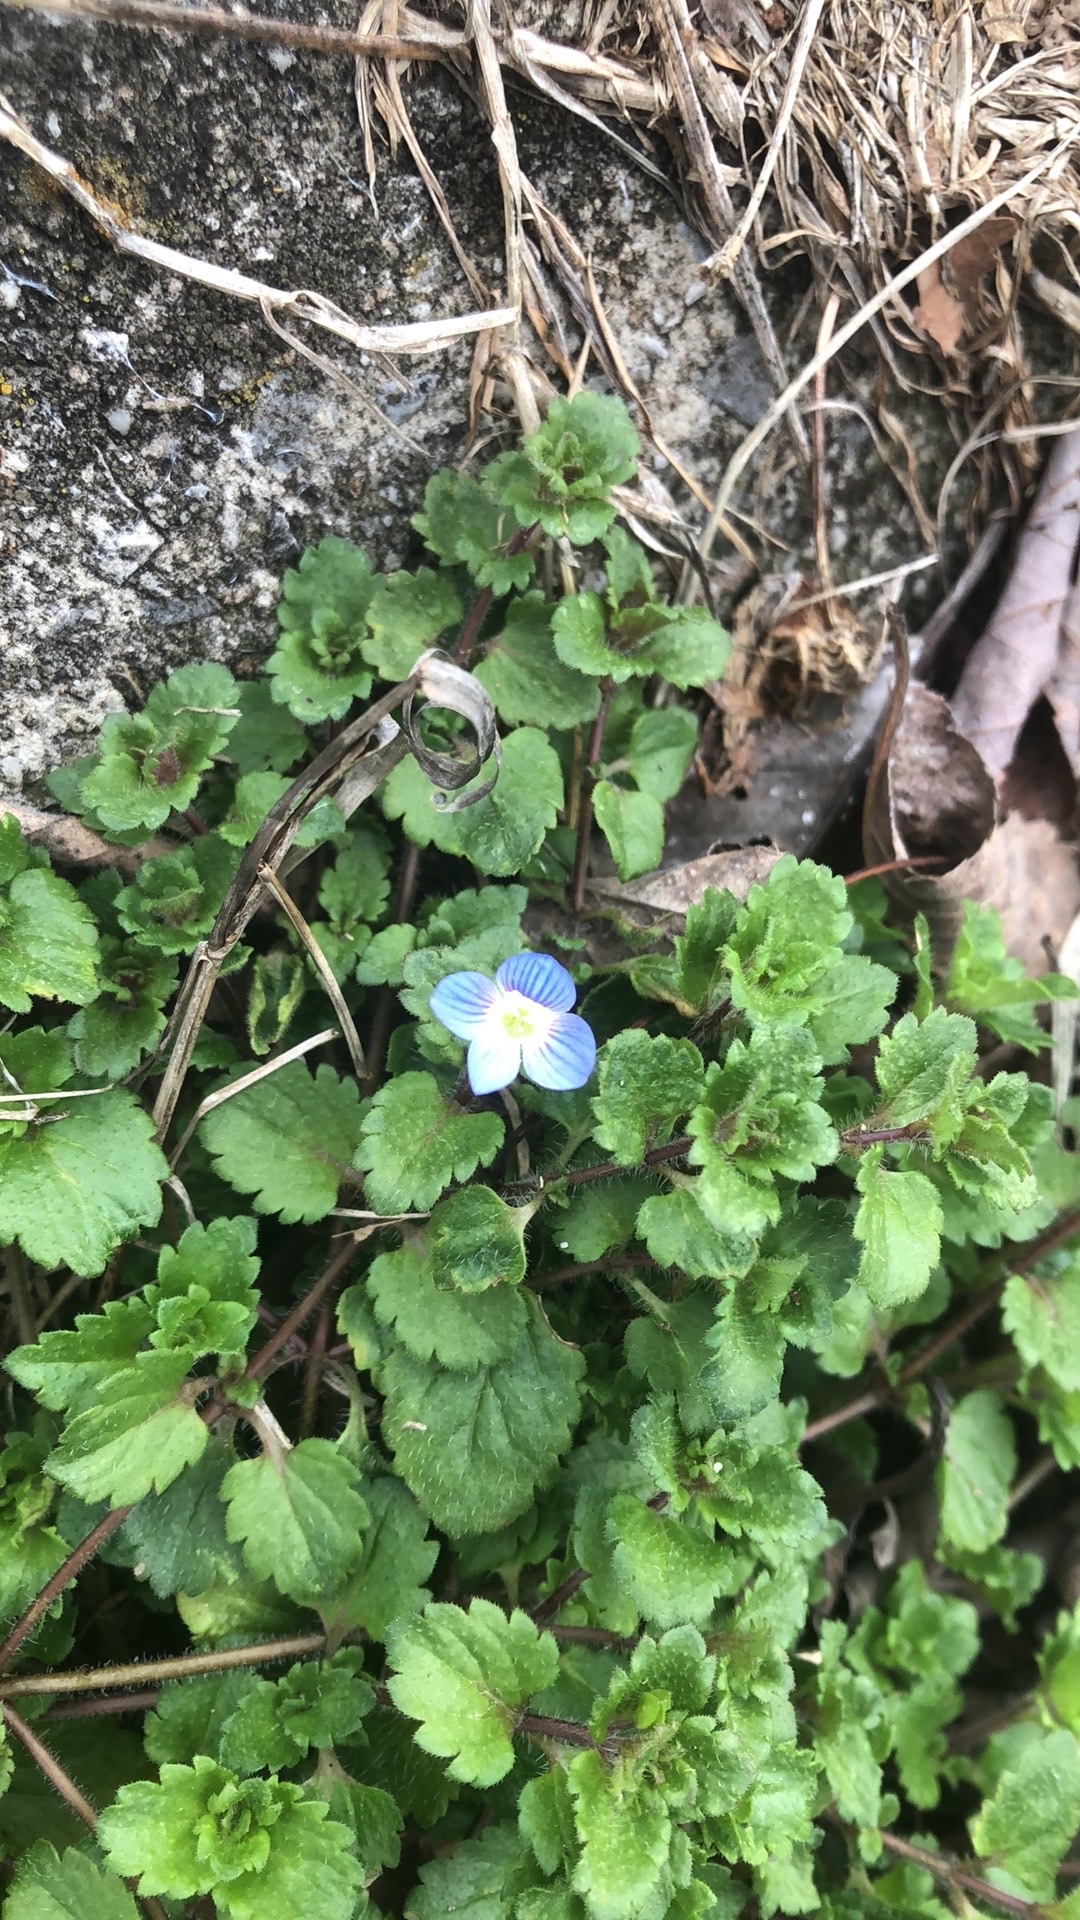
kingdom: Plantae
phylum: Tracheophyta
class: Magnoliopsida
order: Lamiales
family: Plantaginaceae
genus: Veronica
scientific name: Veronica persica
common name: Common field-speedwell
